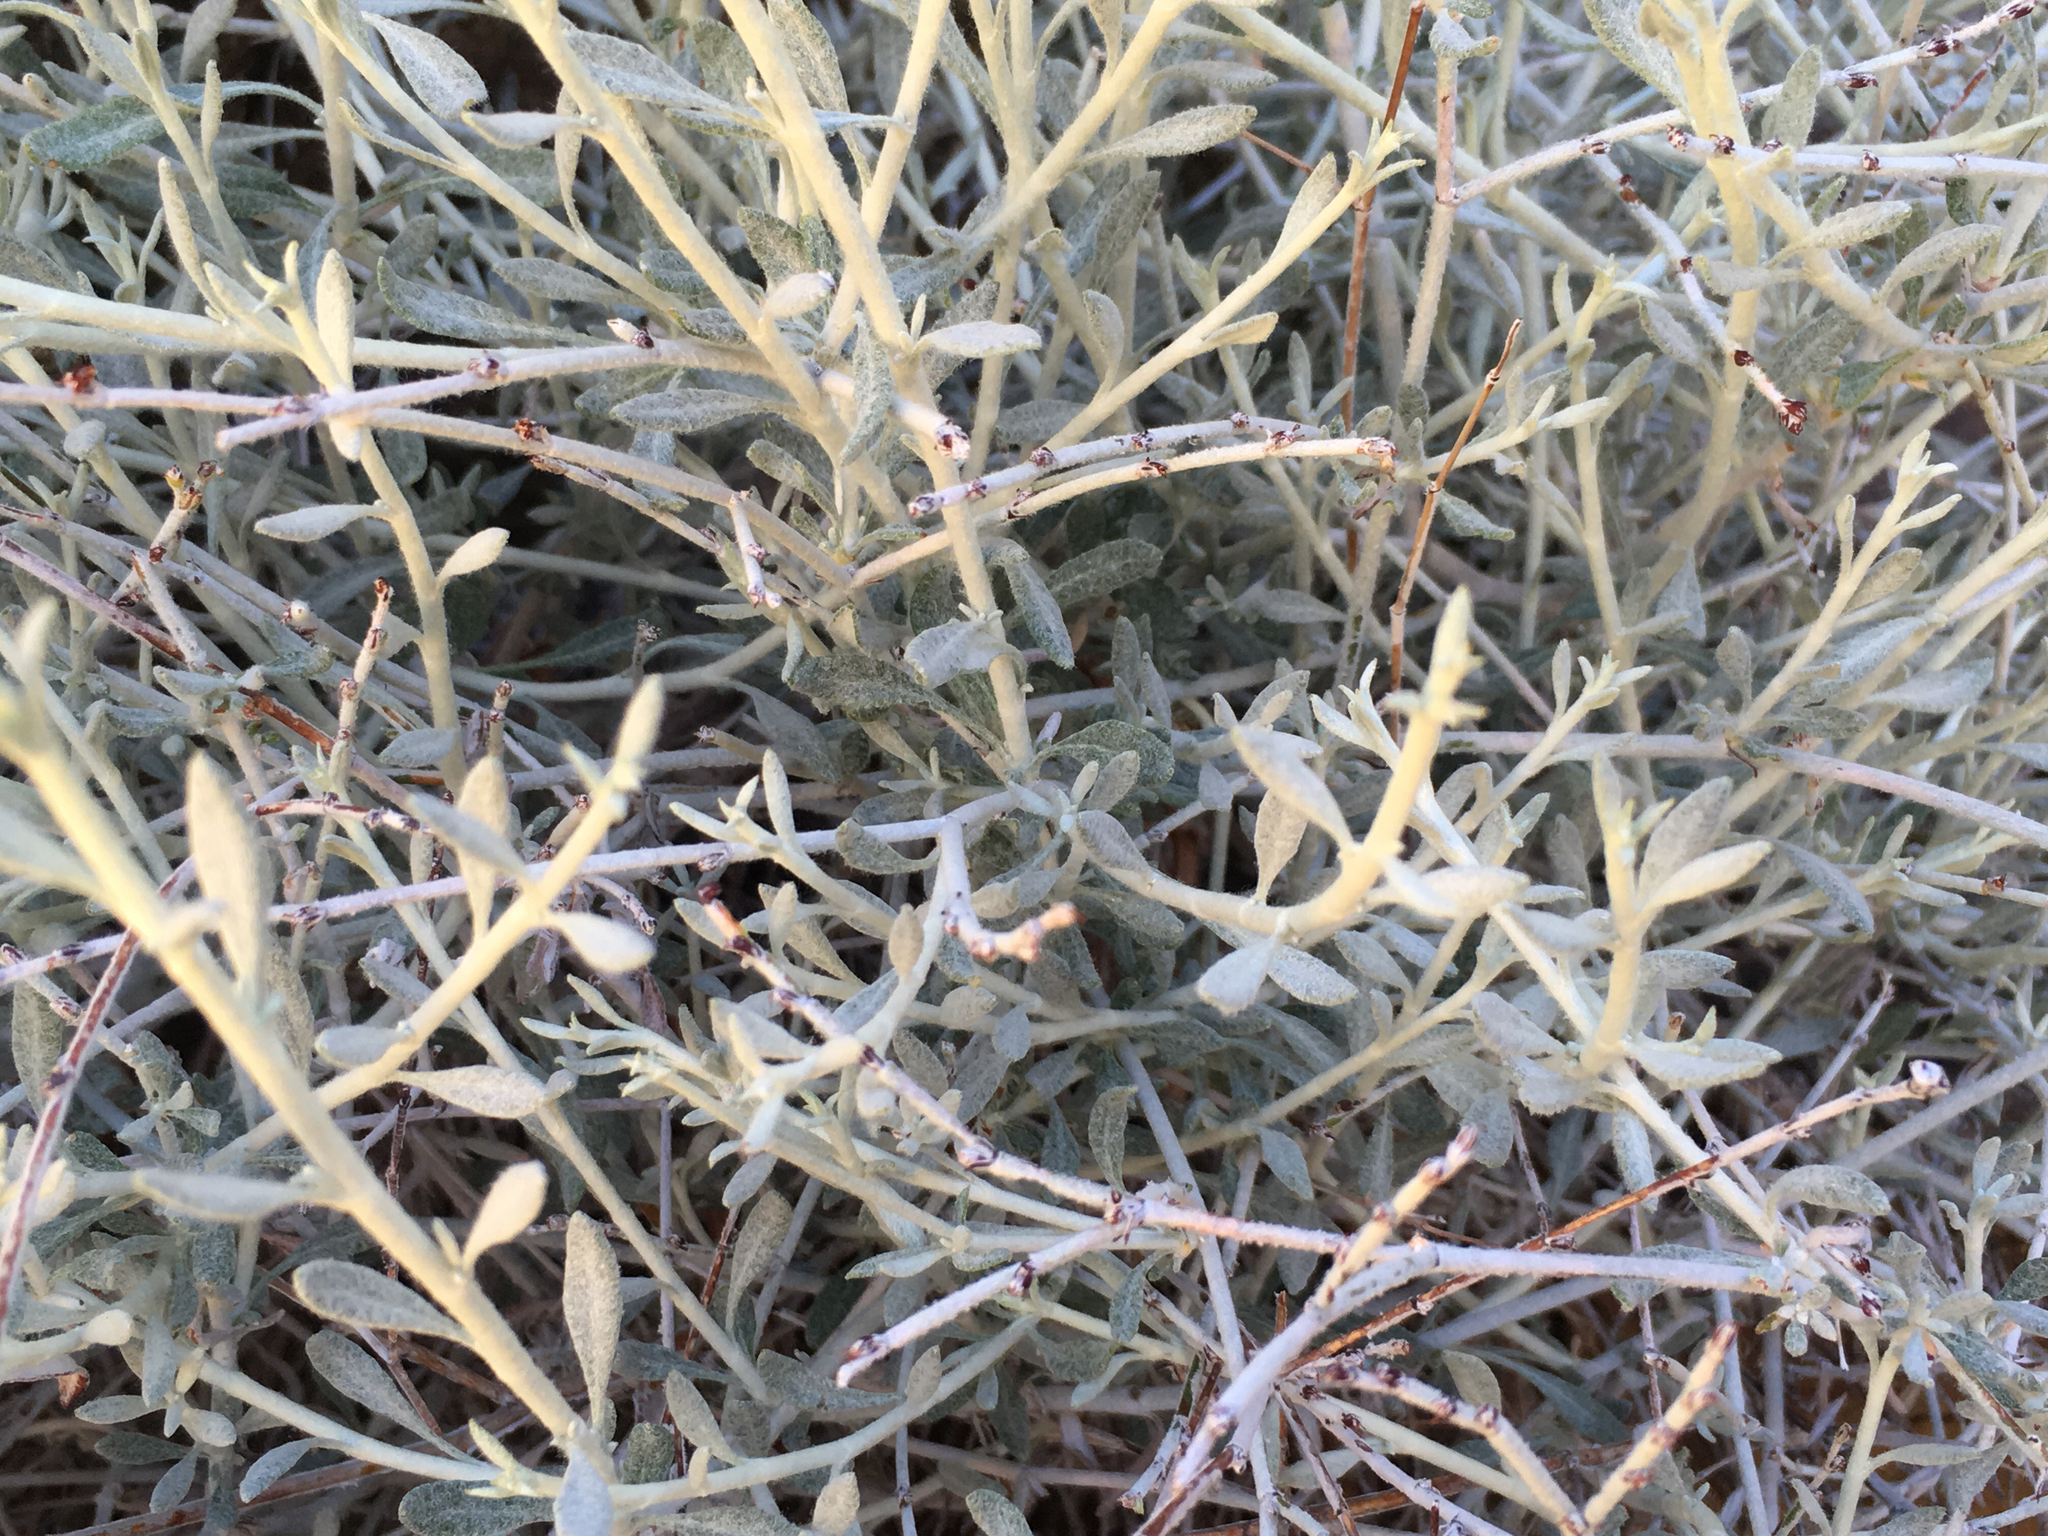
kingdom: Plantae
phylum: Tracheophyta
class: Magnoliopsida
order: Caryophyllales
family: Polygonaceae
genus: Eriogonum
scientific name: Eriogonum wrightii
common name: Bastard-sage
